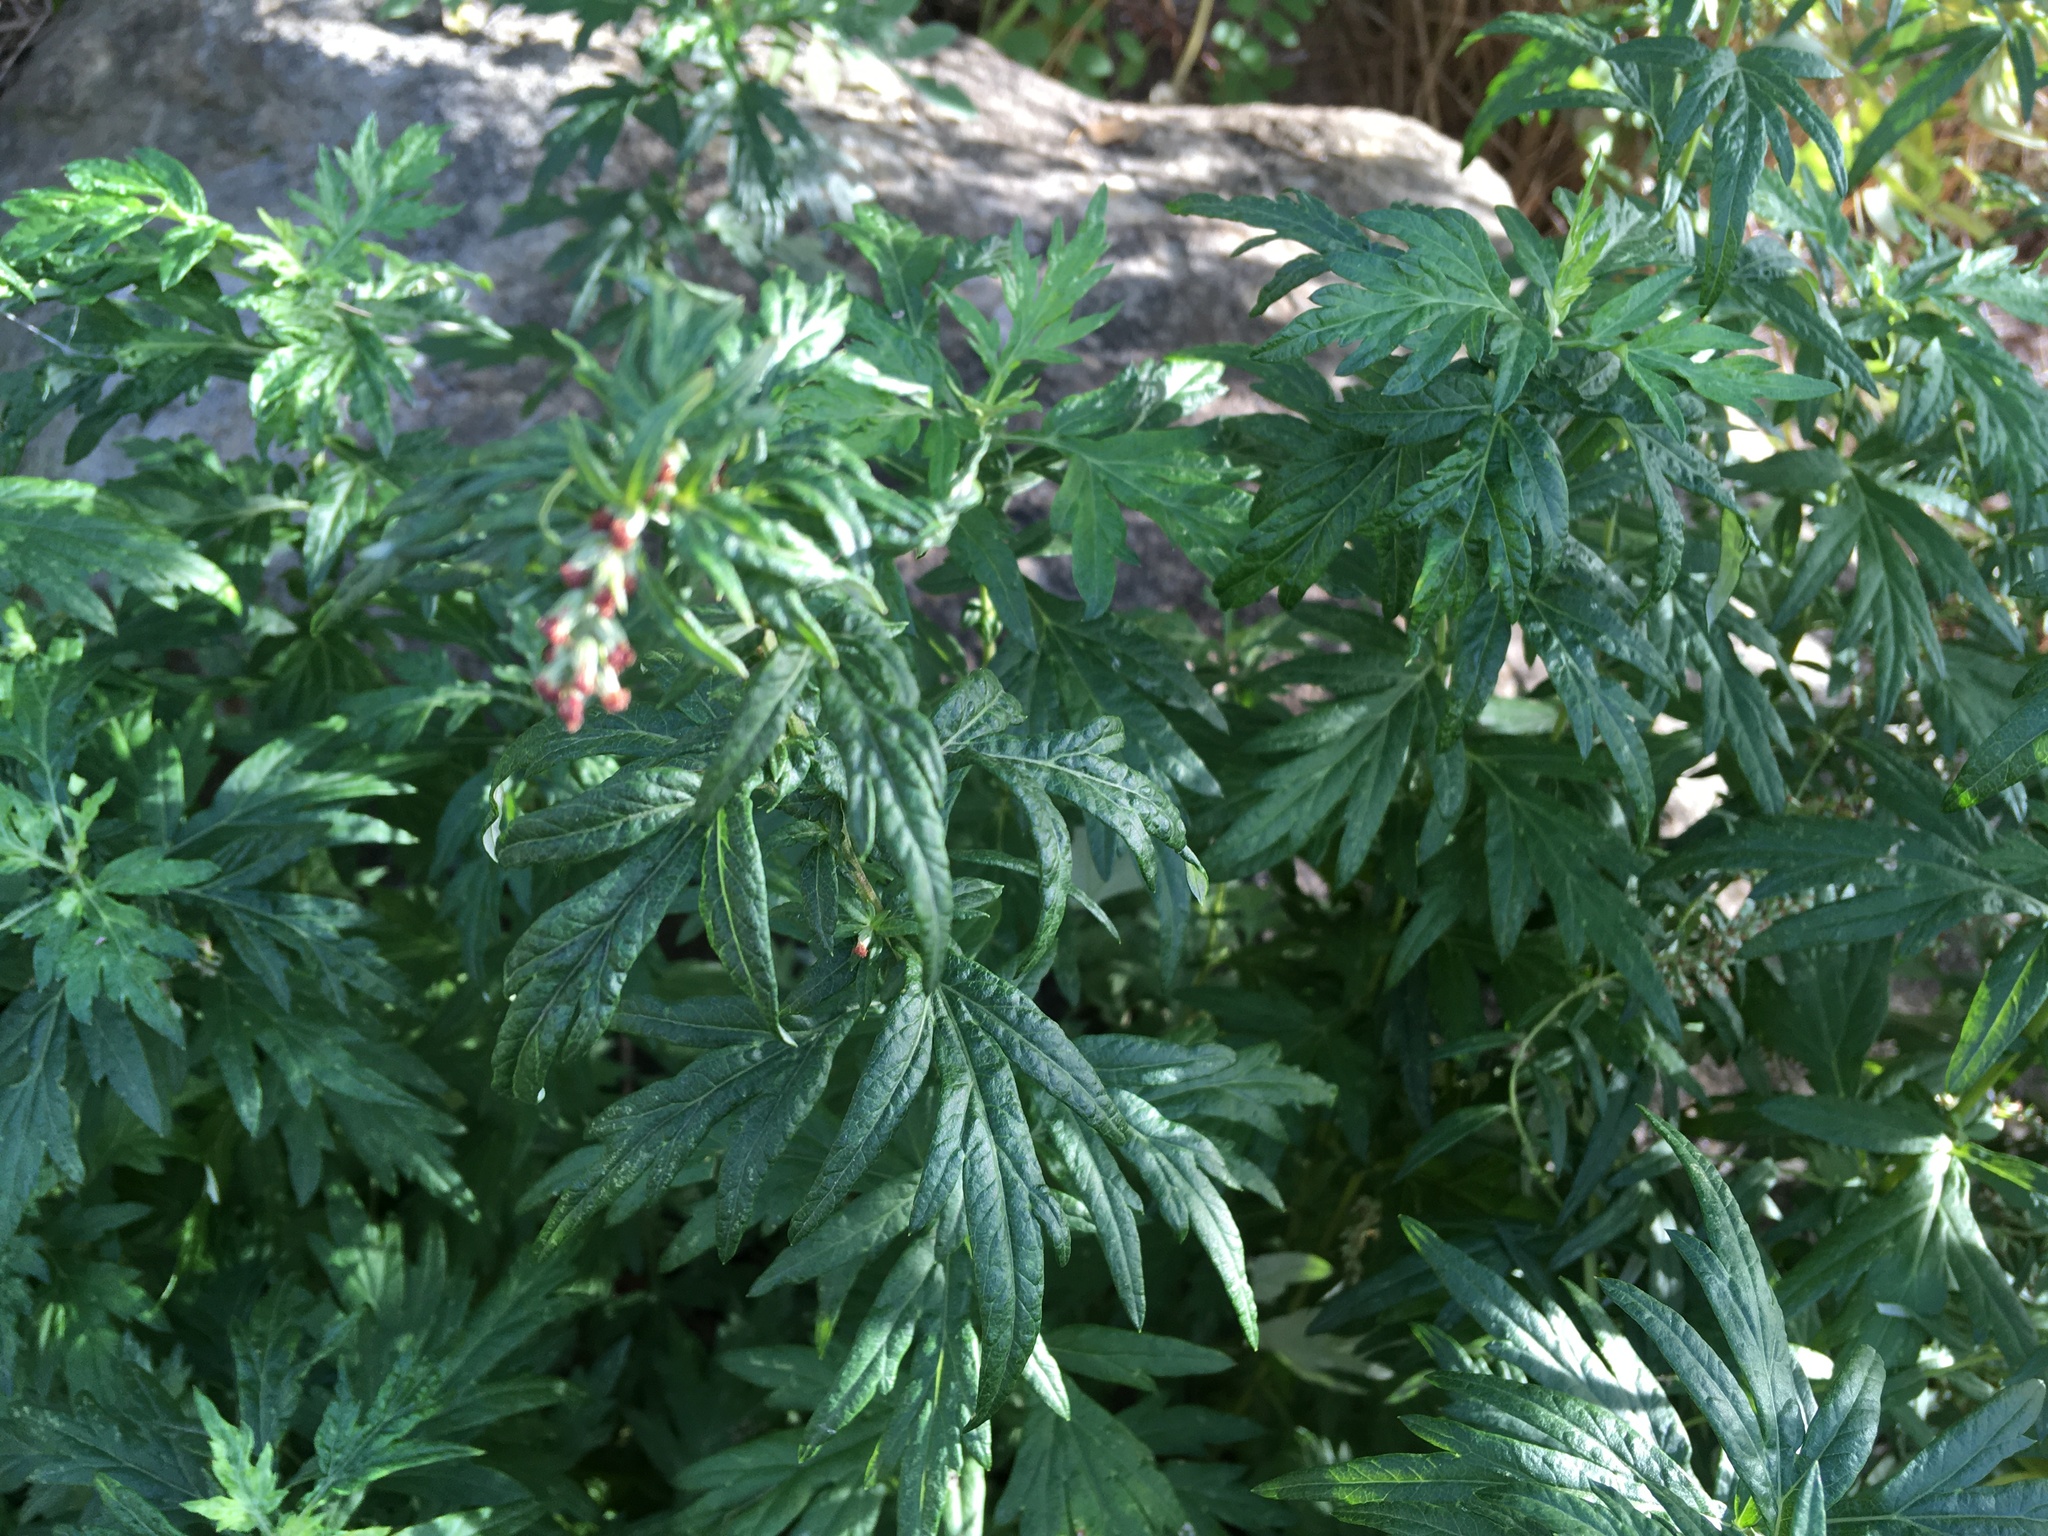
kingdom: Plantae
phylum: Tracheophyta
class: Magnoliopsida
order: Asterales
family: Asteraceae
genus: Artemisia
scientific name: Artemisia vulgaris
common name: Mugwort
